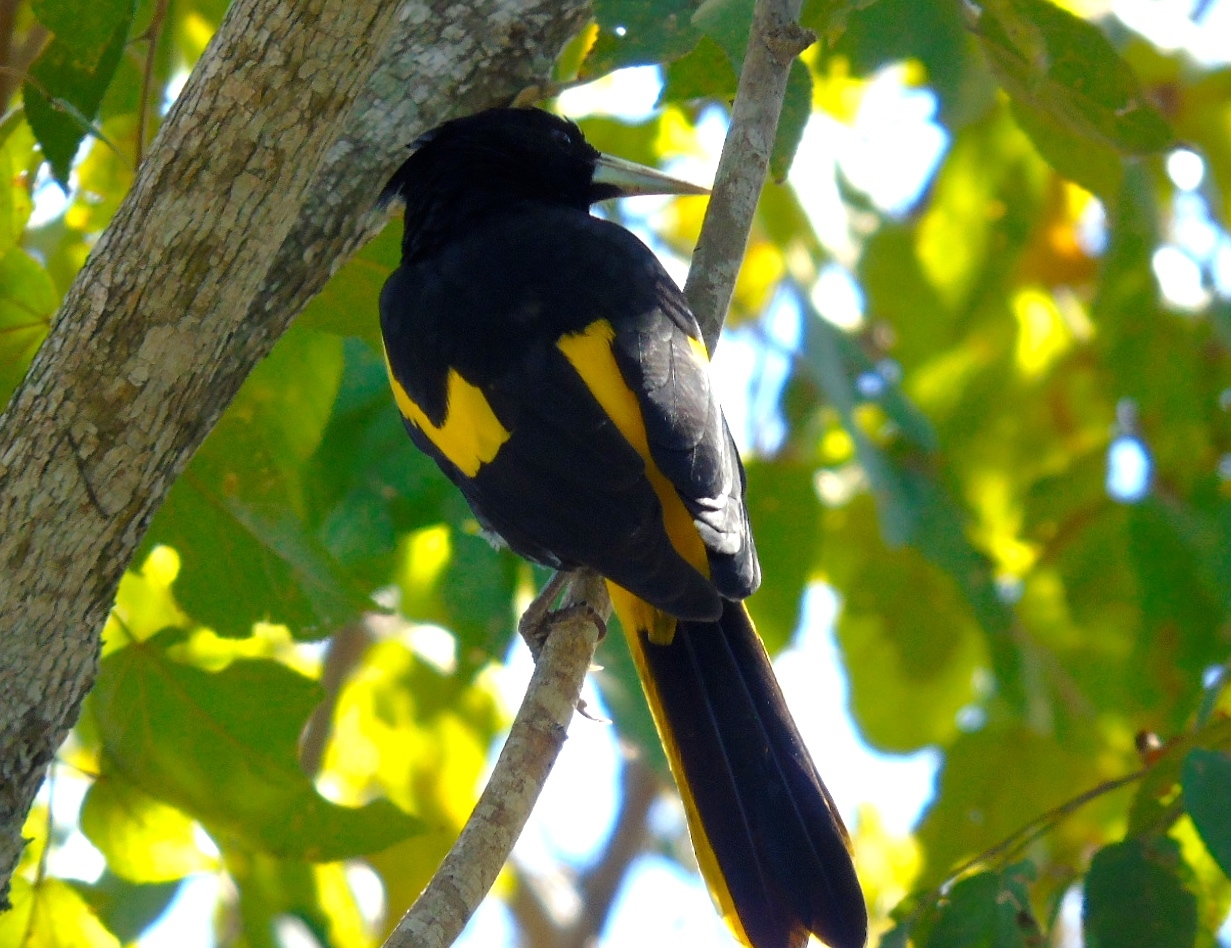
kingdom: Animalia
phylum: Chordata
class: Aves
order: Passeriformes
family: Icteridae
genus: Cacicus
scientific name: Cacicus melanicterus
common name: Yellow-winged cacique
